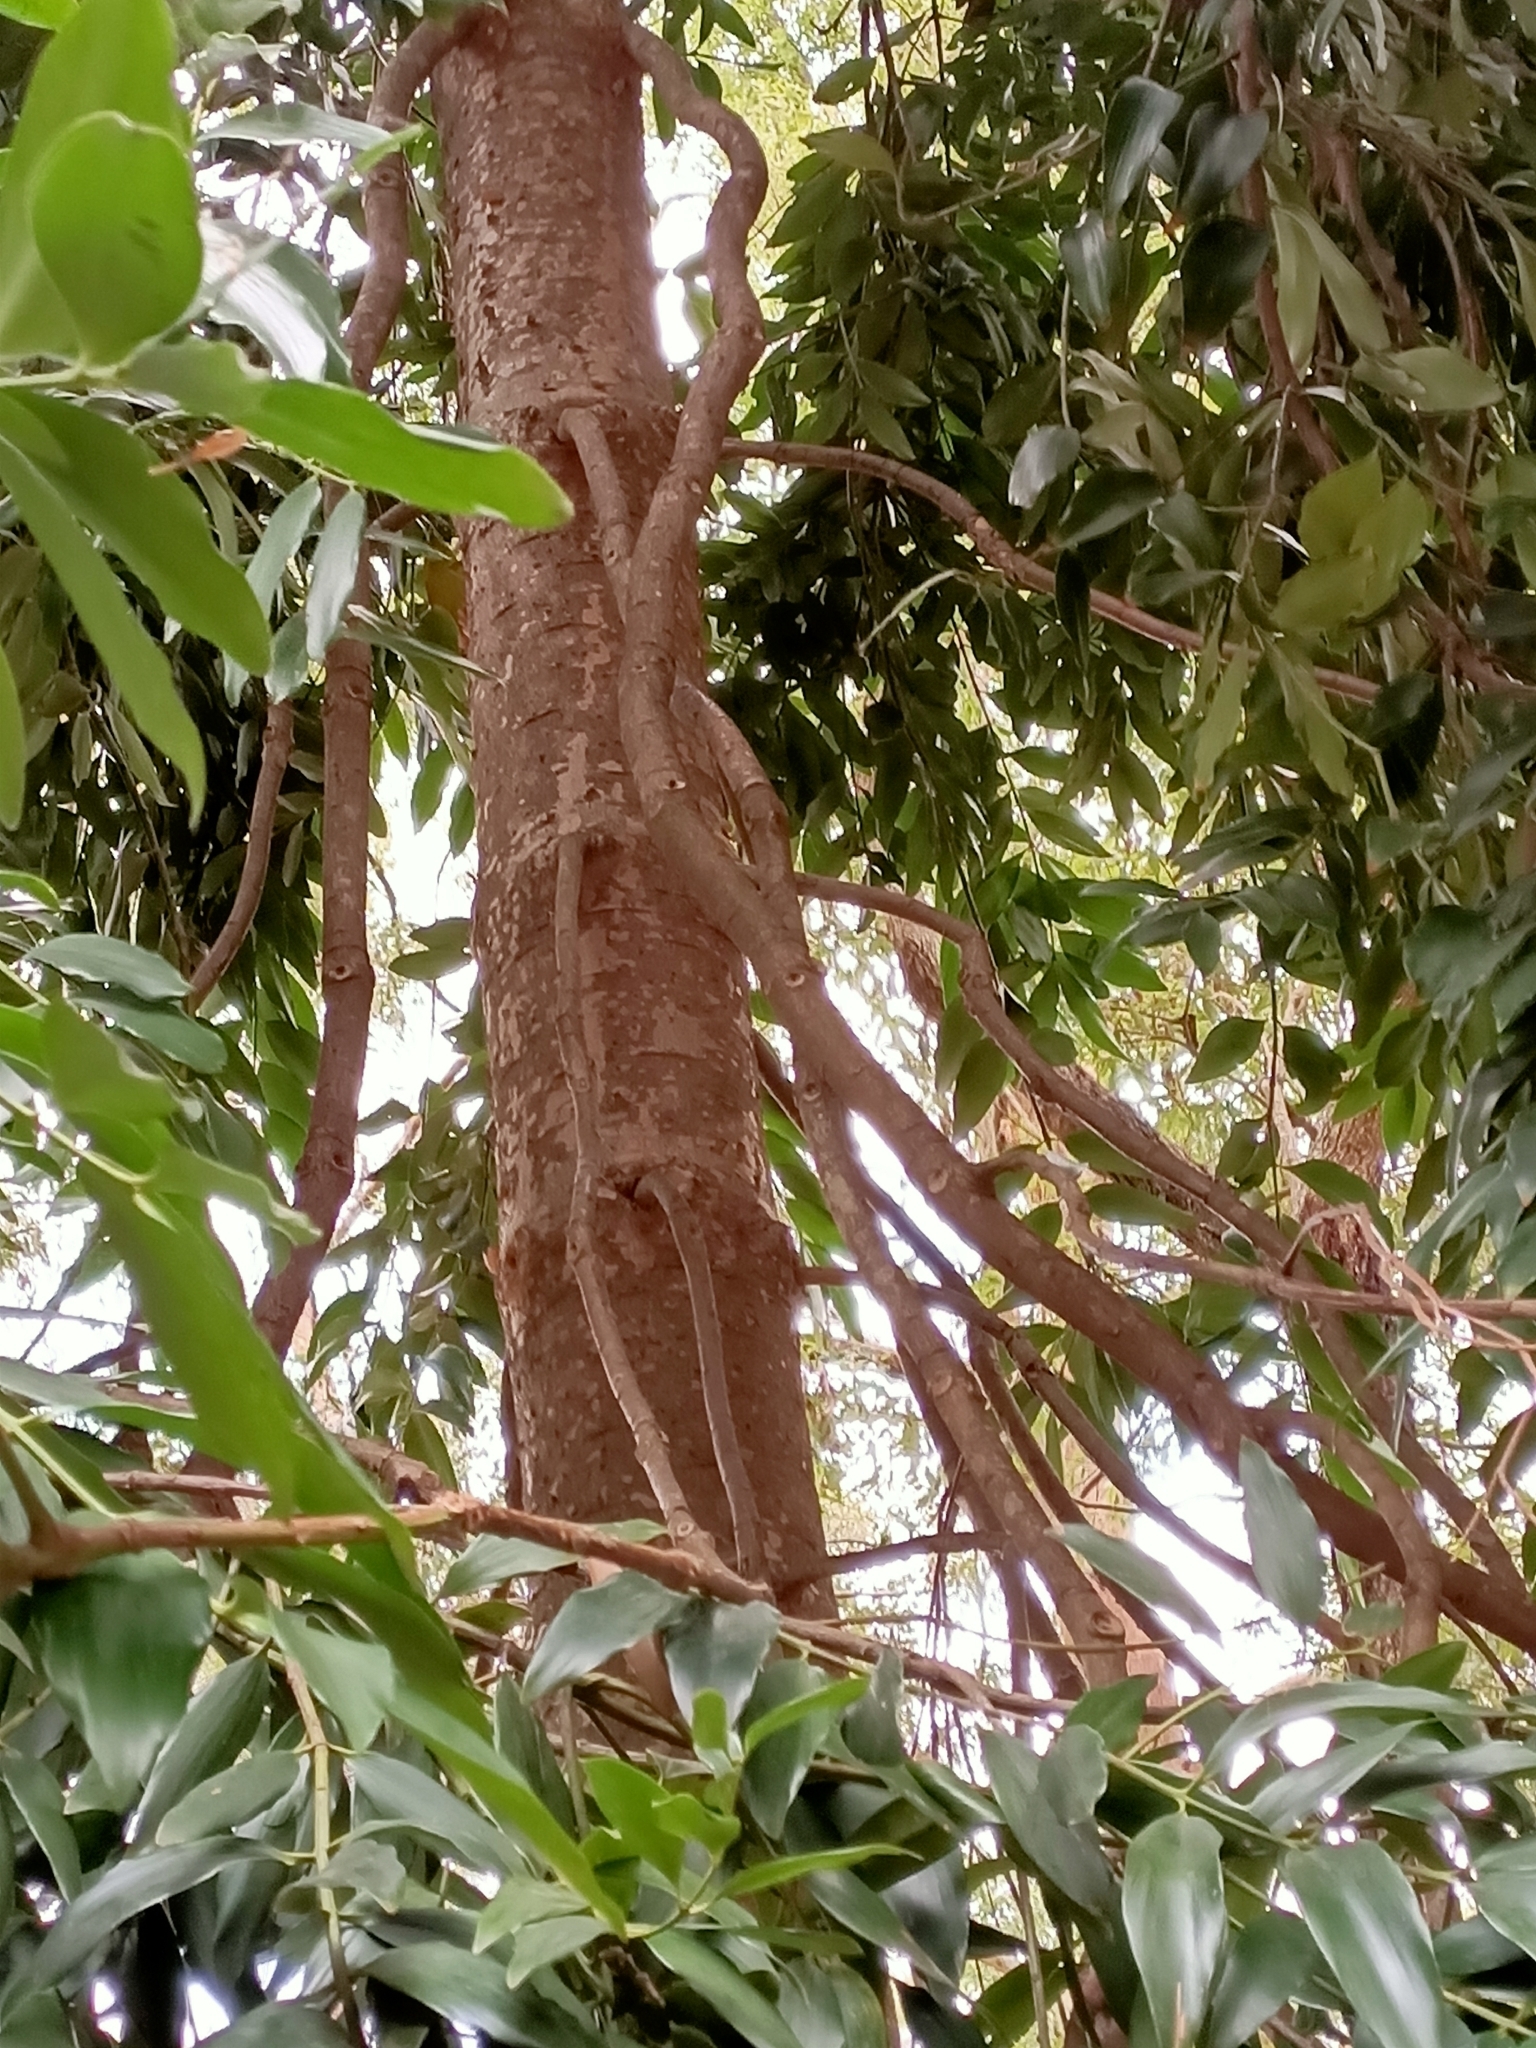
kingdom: Plantae
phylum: Tracheophyta
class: Pinopsida
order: Pinales
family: Araucariaceae
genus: Agathis
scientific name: Agathis robusta
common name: Australian-kauri
